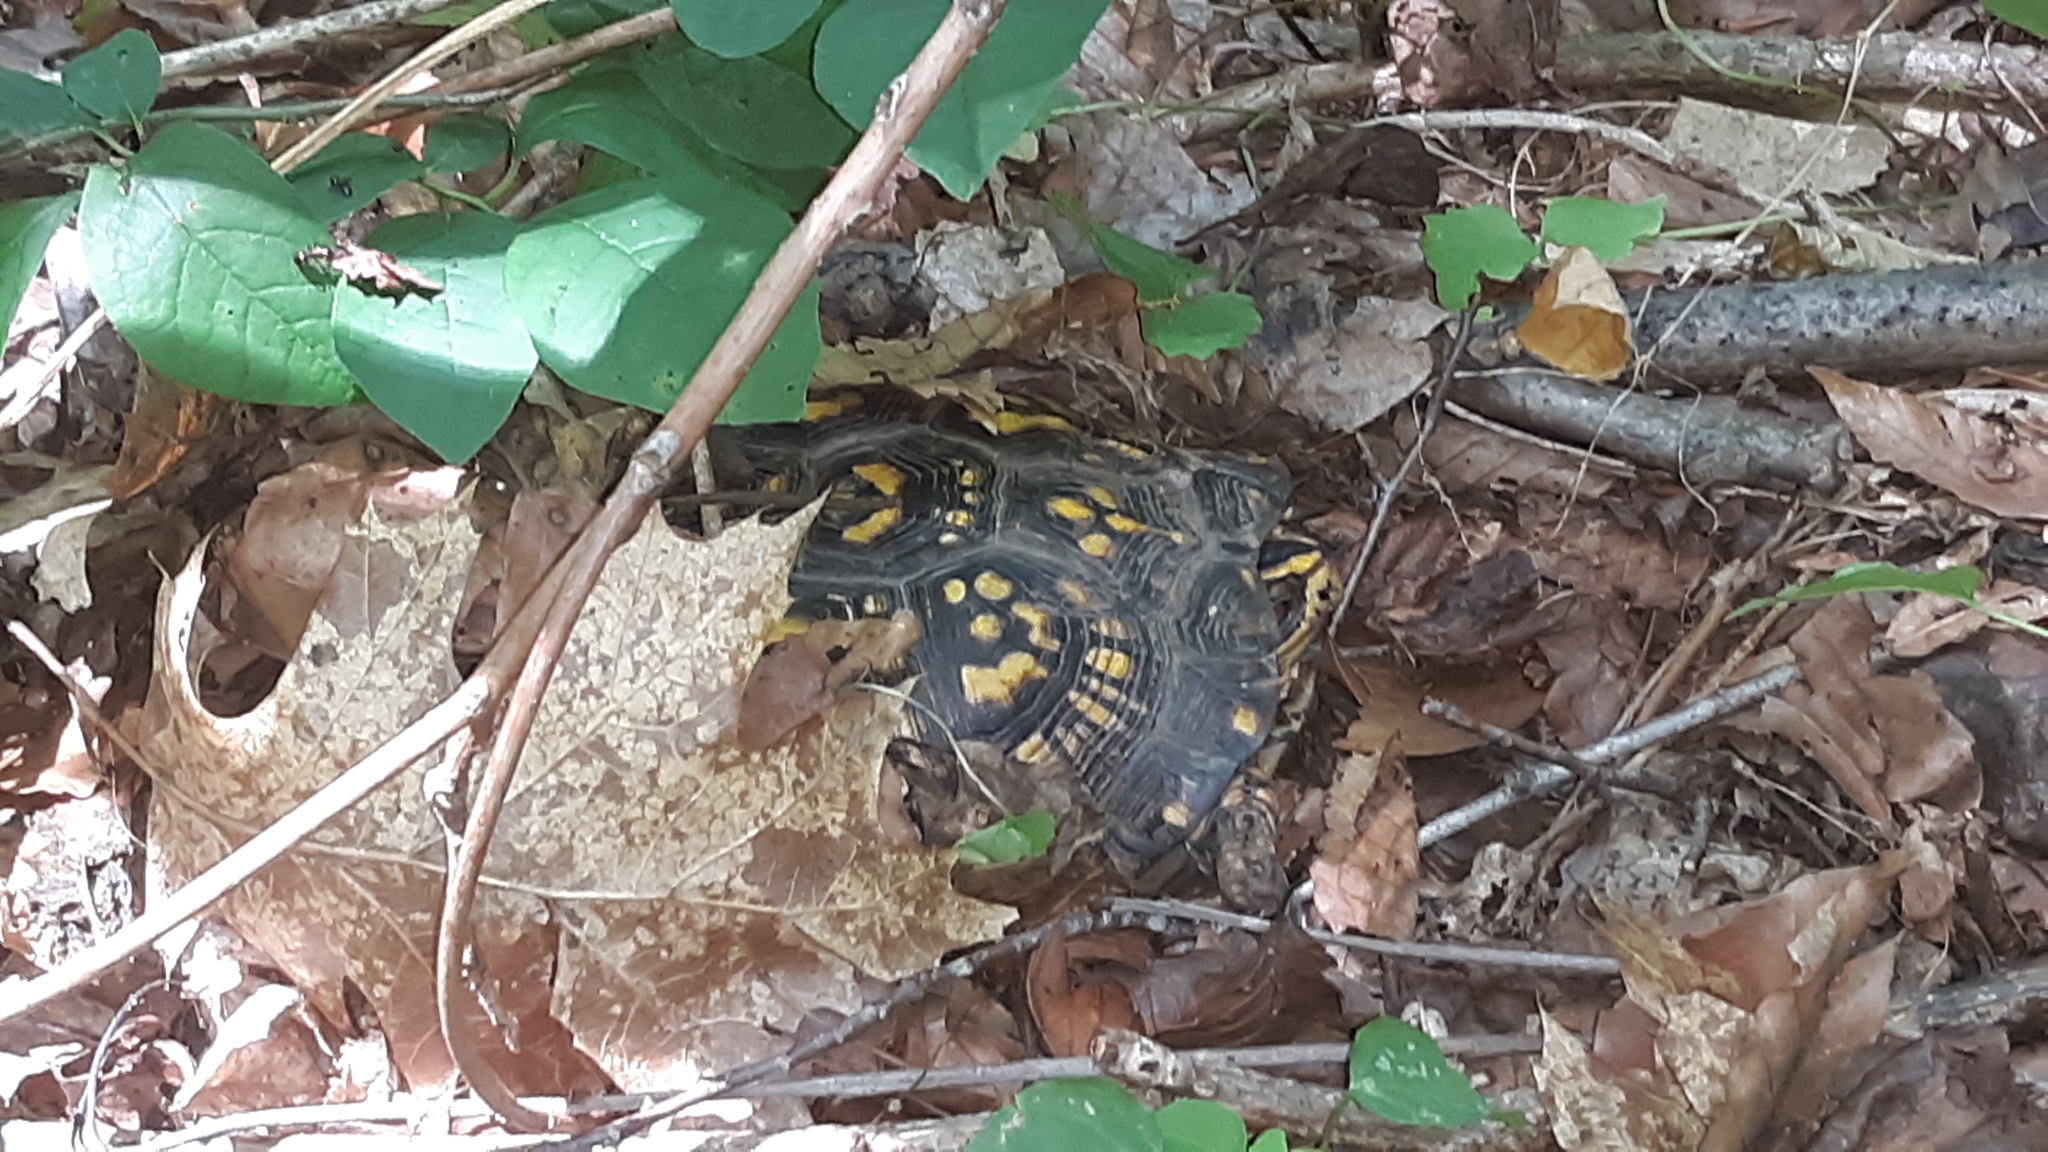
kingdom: Animalia
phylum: Chordata
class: Testudines
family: Emydidae
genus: Terrapene
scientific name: Terrapene carolina
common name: Common box turtle
